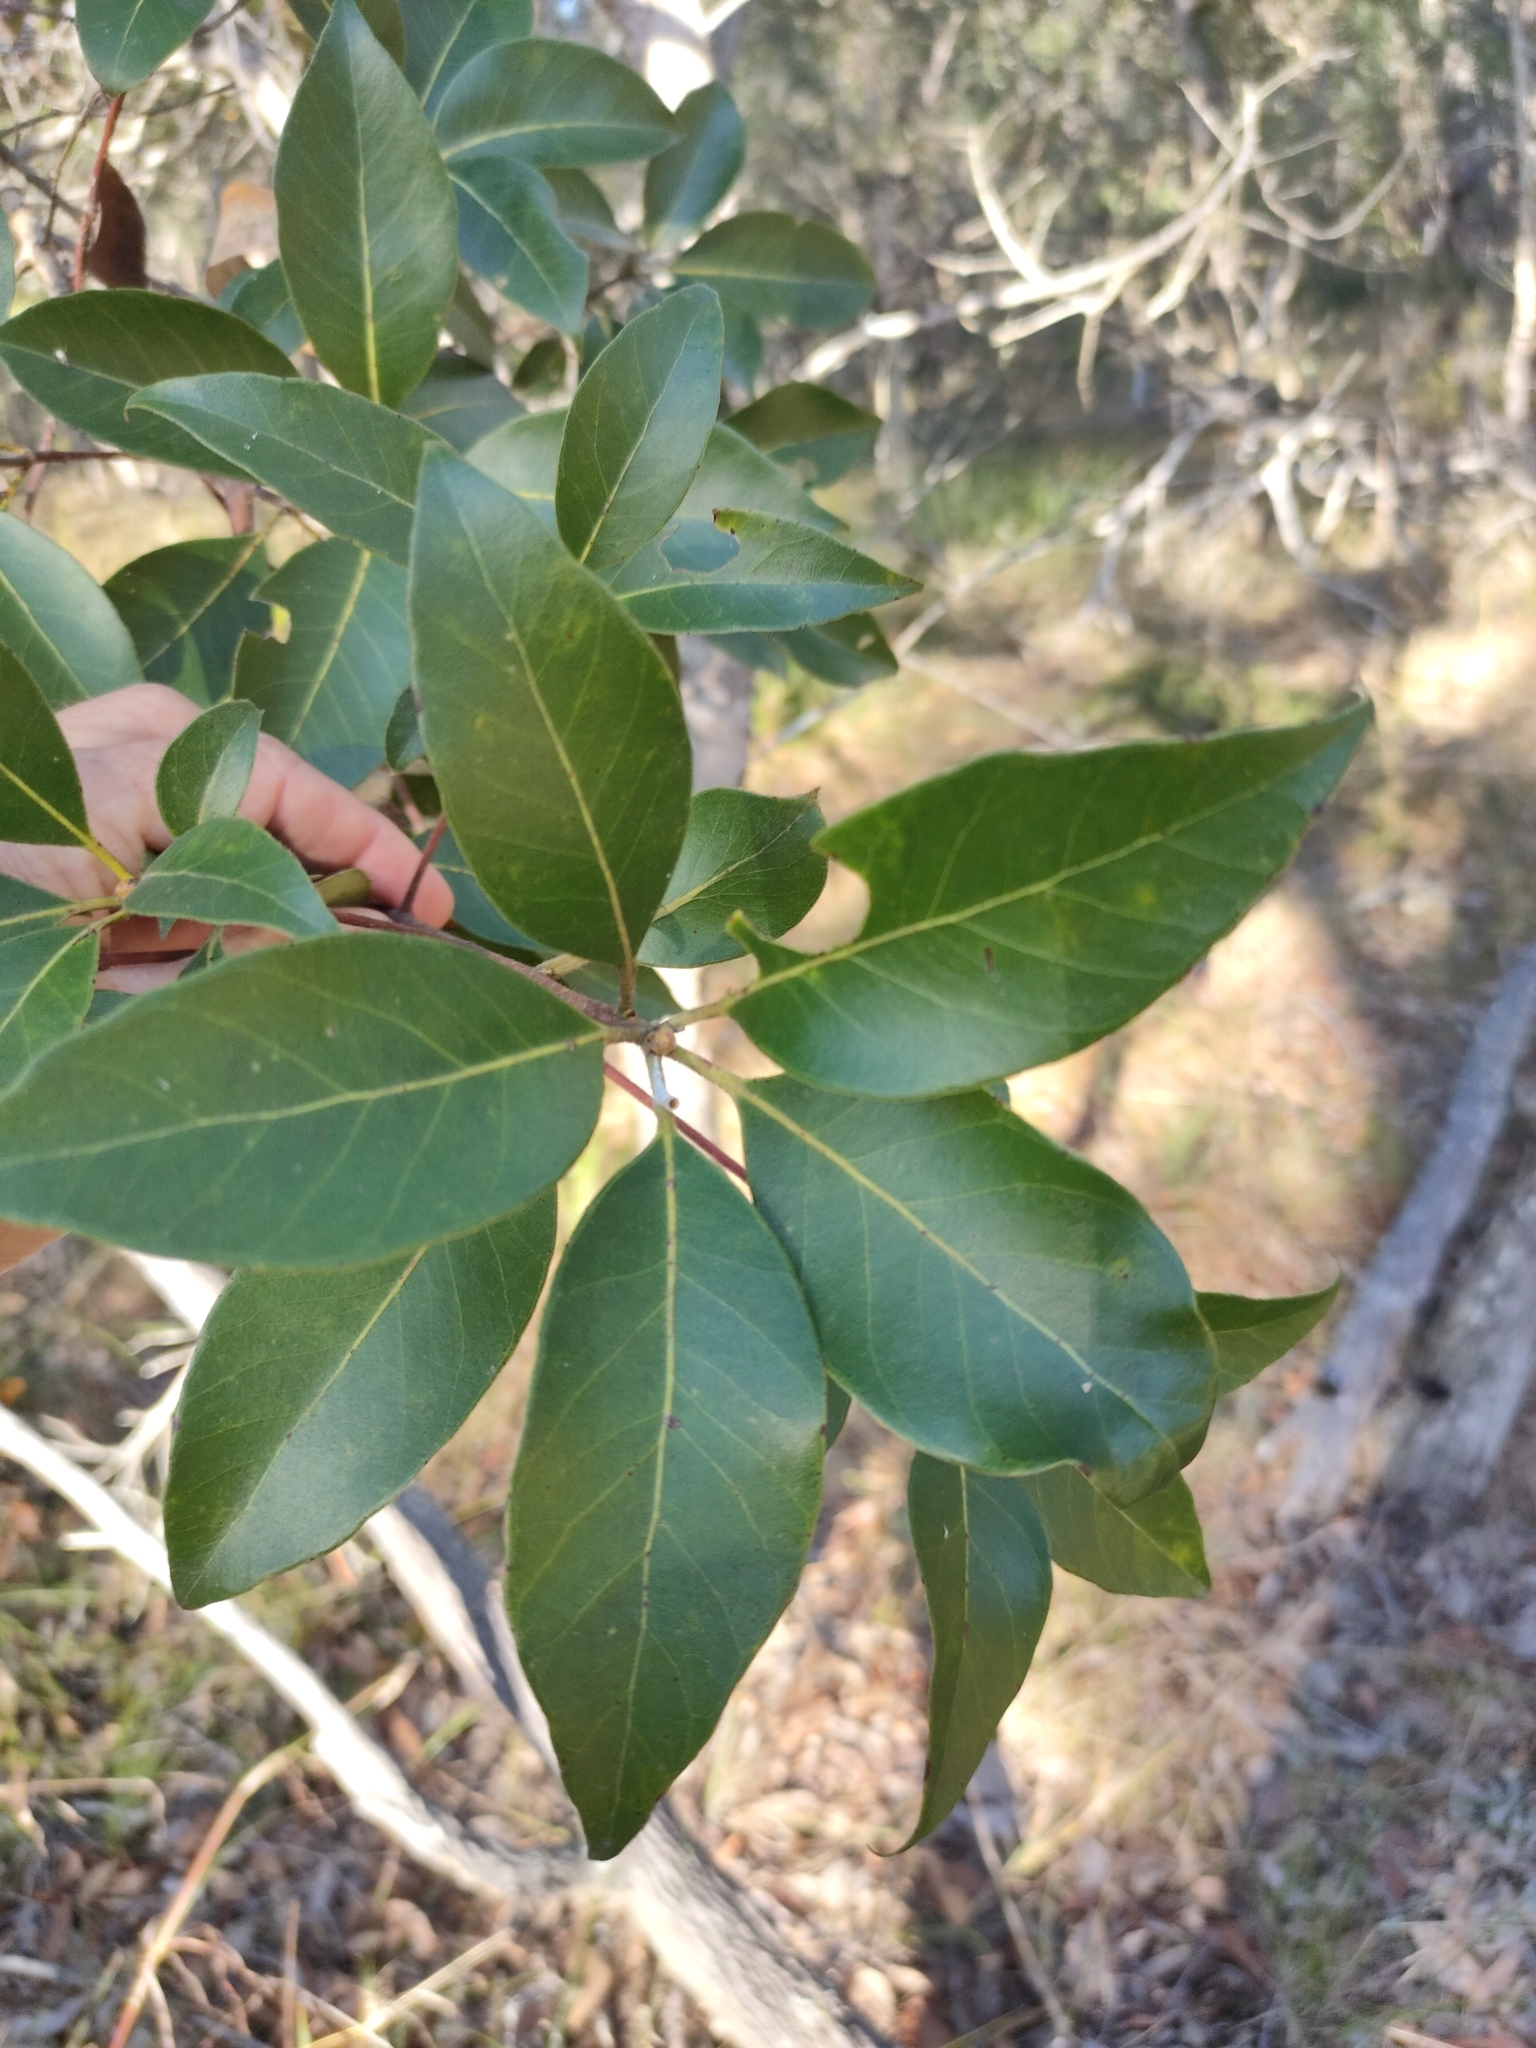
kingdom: Plantae
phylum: Tracheophyta
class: Magnoliopsida
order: Myrtales
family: Myrtaceae
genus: Lophostemon
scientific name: Lophostemon confertus
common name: Brisbane box
